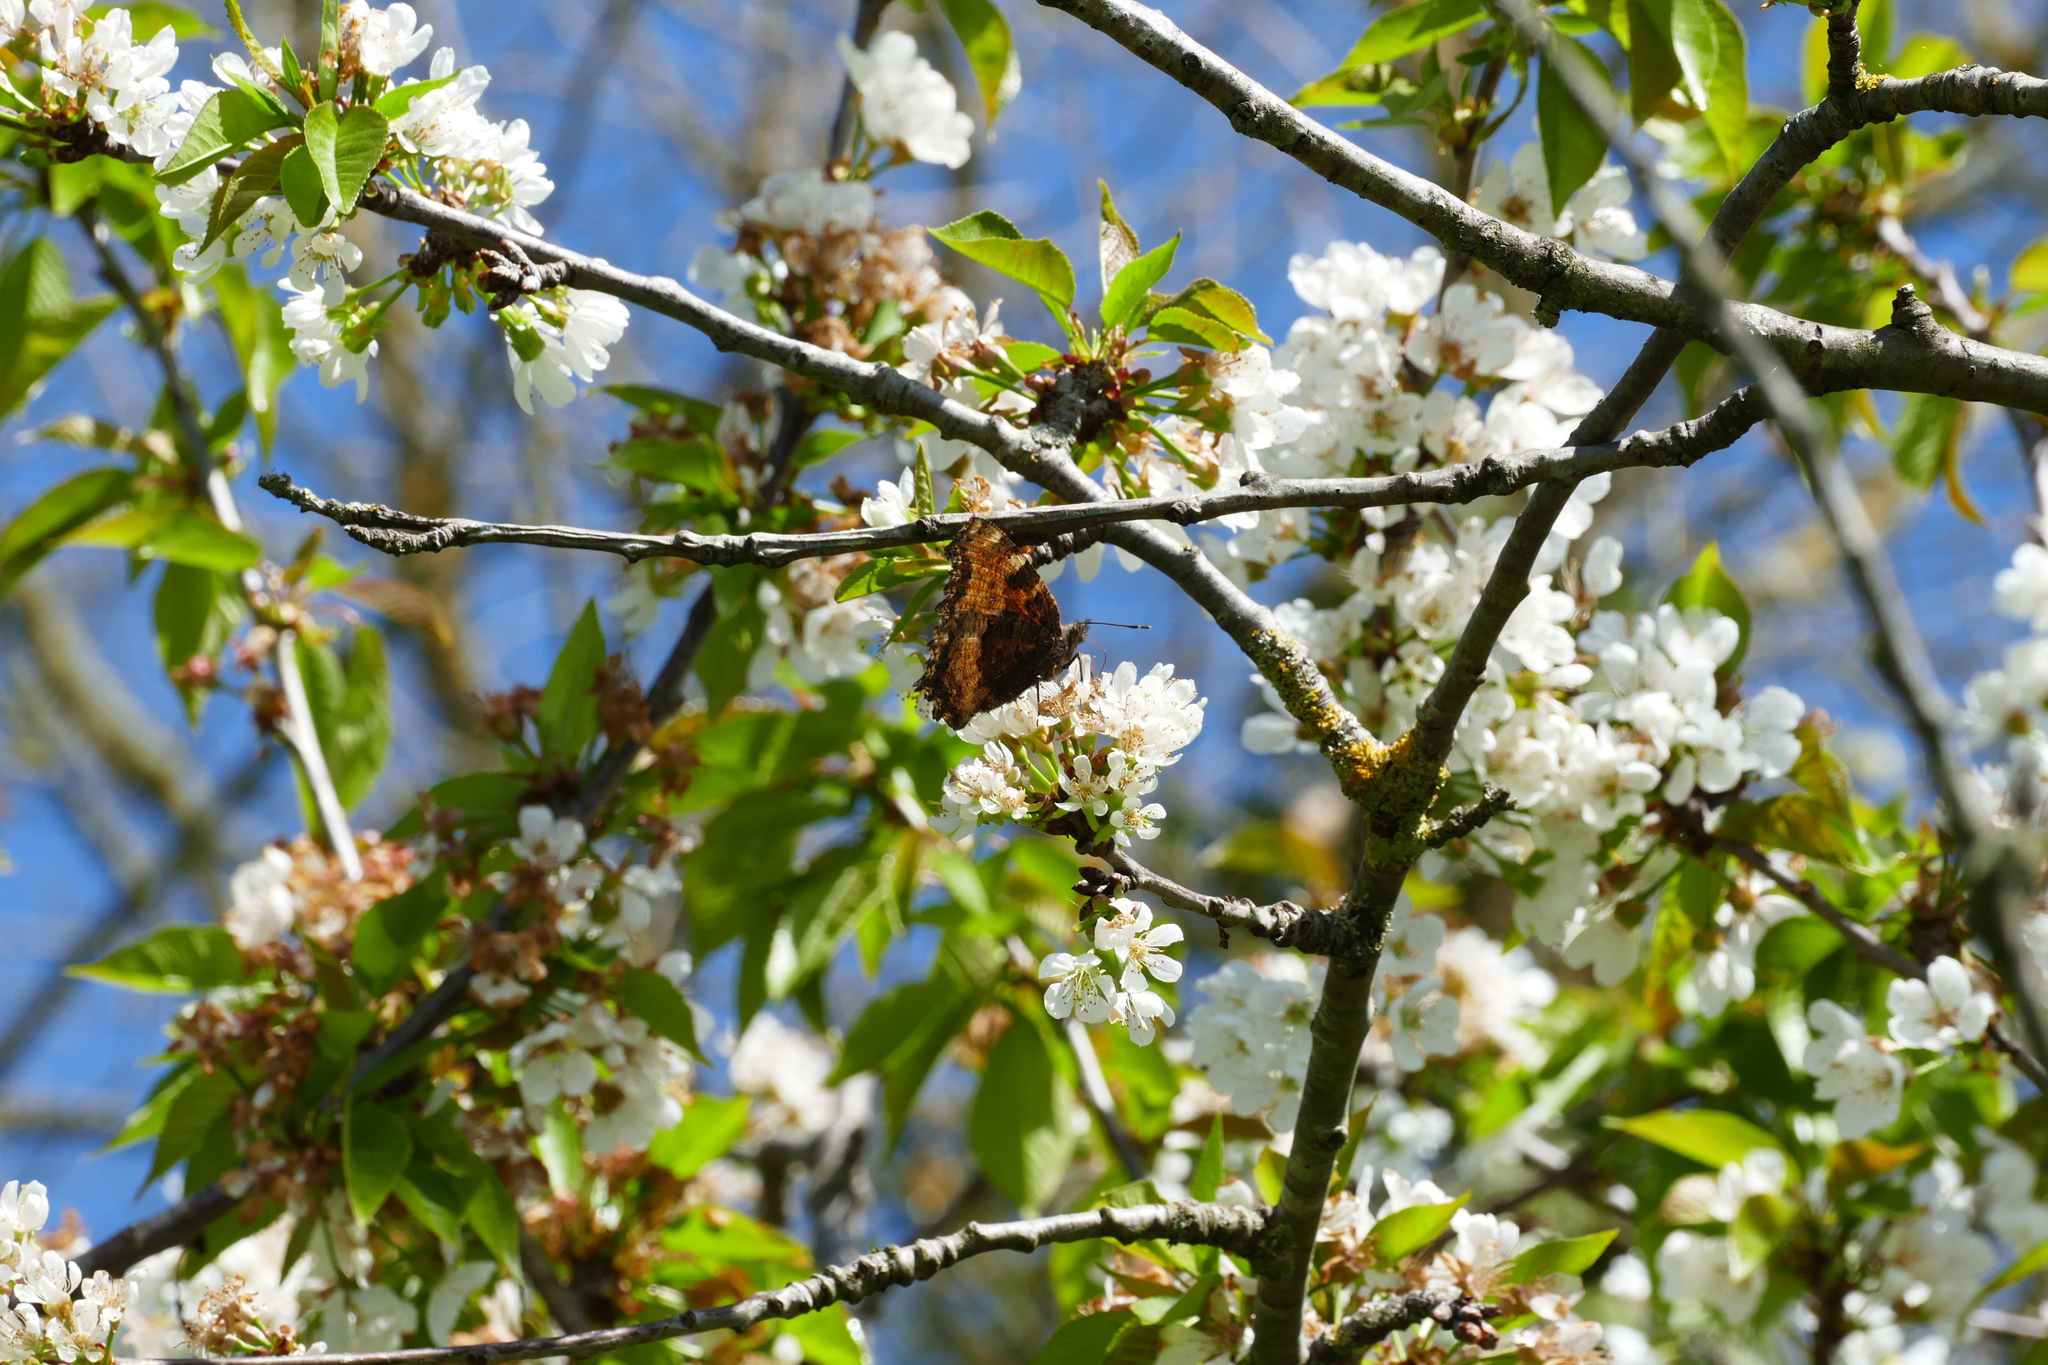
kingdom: Animalia
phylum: Arthropoda
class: Insecta
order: Lepidoptera
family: Nymphalidae
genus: Nymphalis
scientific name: Nymphalis polychloros
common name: Large tortoiseshell
